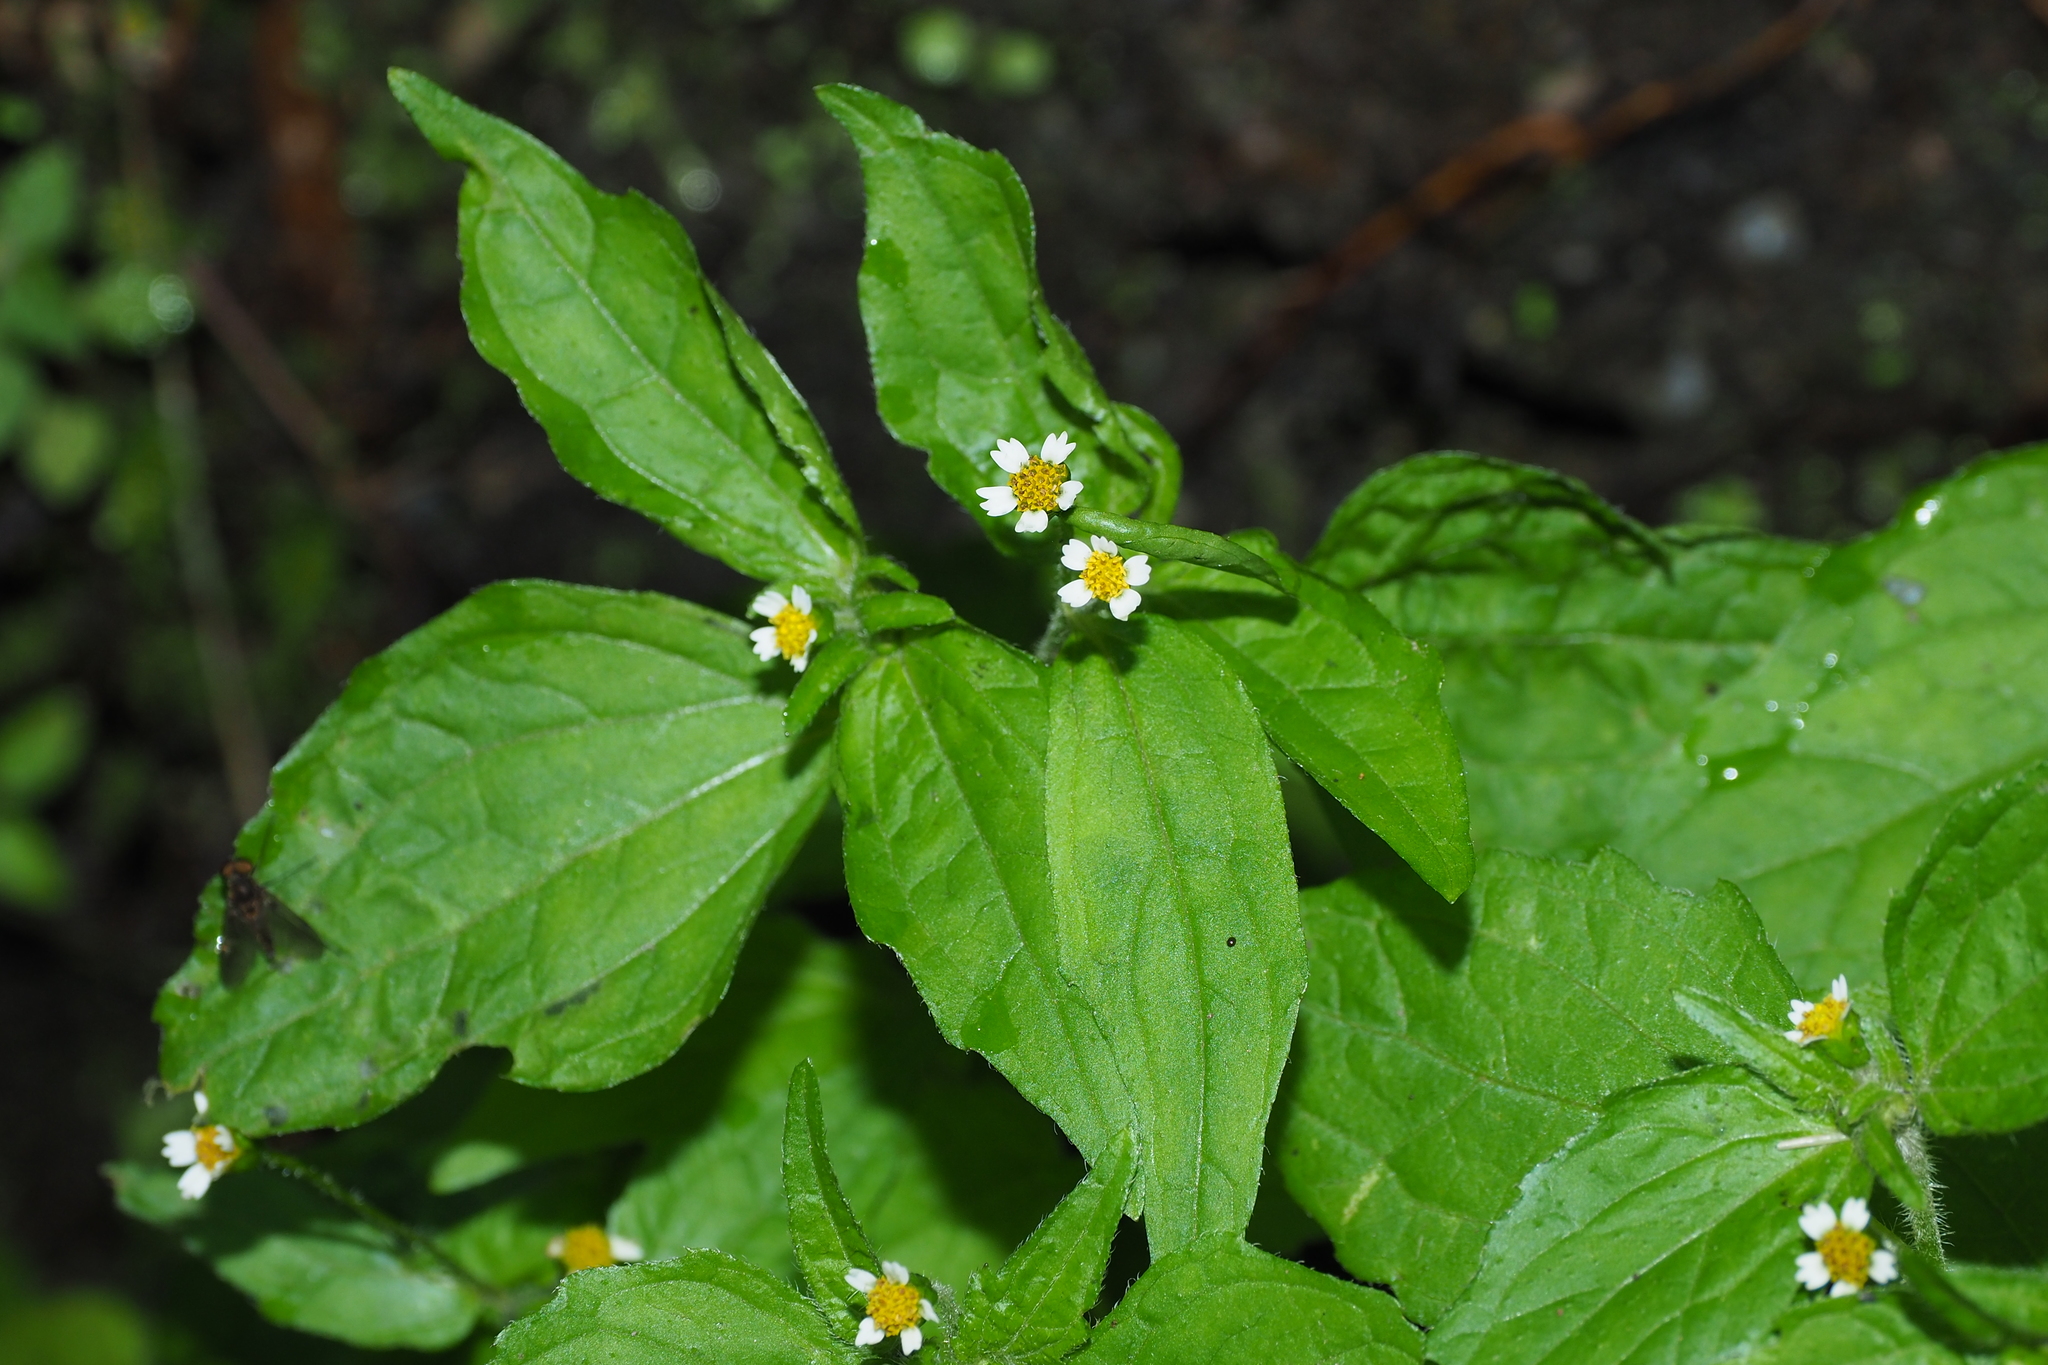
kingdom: Plantae
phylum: Tracheophyta
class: Magnoliopsida
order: Asterales
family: Asteraceae
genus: Galinsoga
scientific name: Galinsoga quadriradiata
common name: Shaggy soldier
